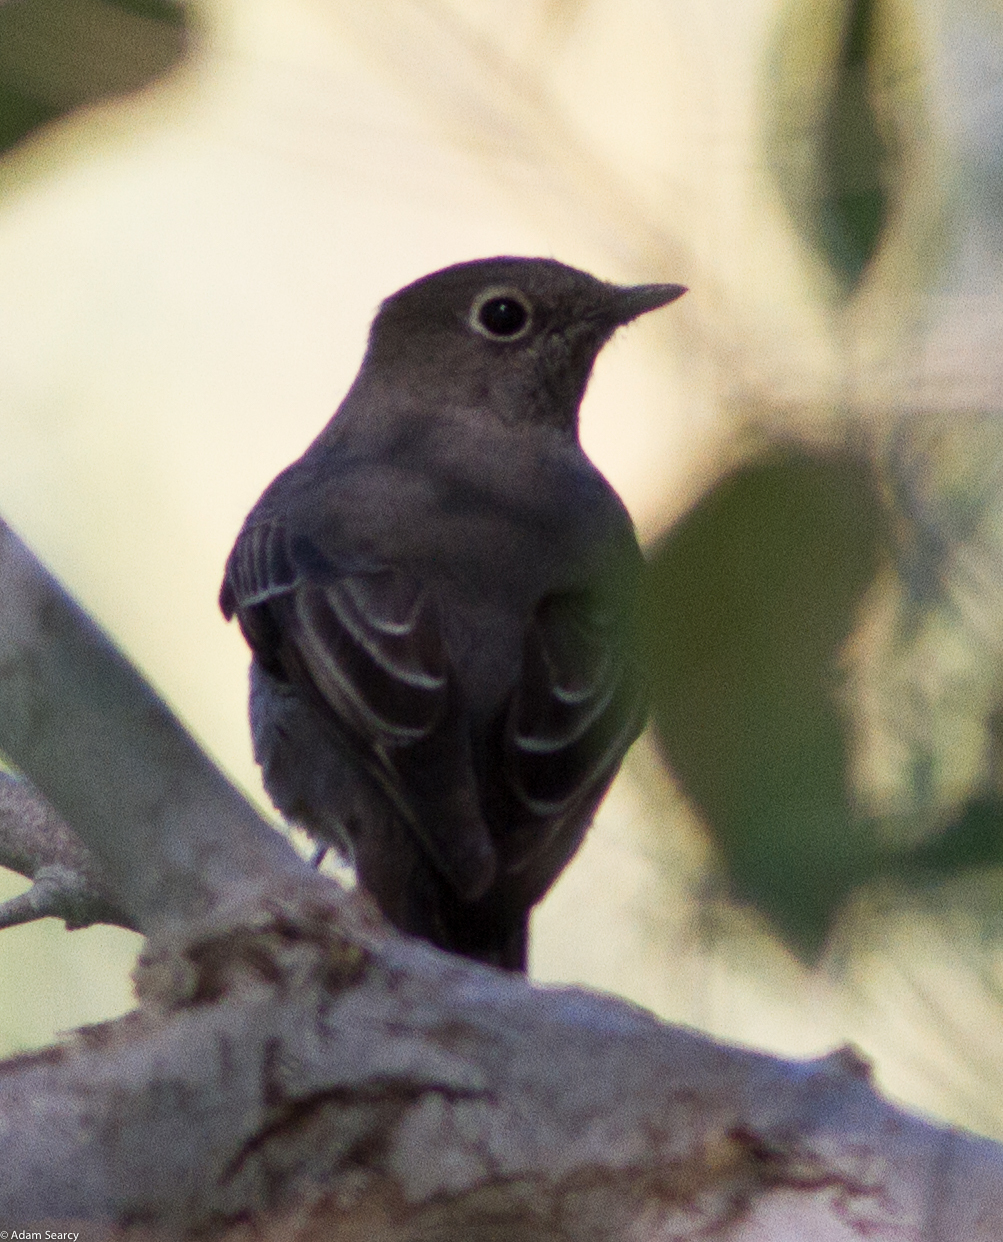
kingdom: Animalia
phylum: Chordata
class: Aves
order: Passeriformes
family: Turdidae
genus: Myadestes
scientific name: Myadestes townsendi
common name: Townsend's solitaire
